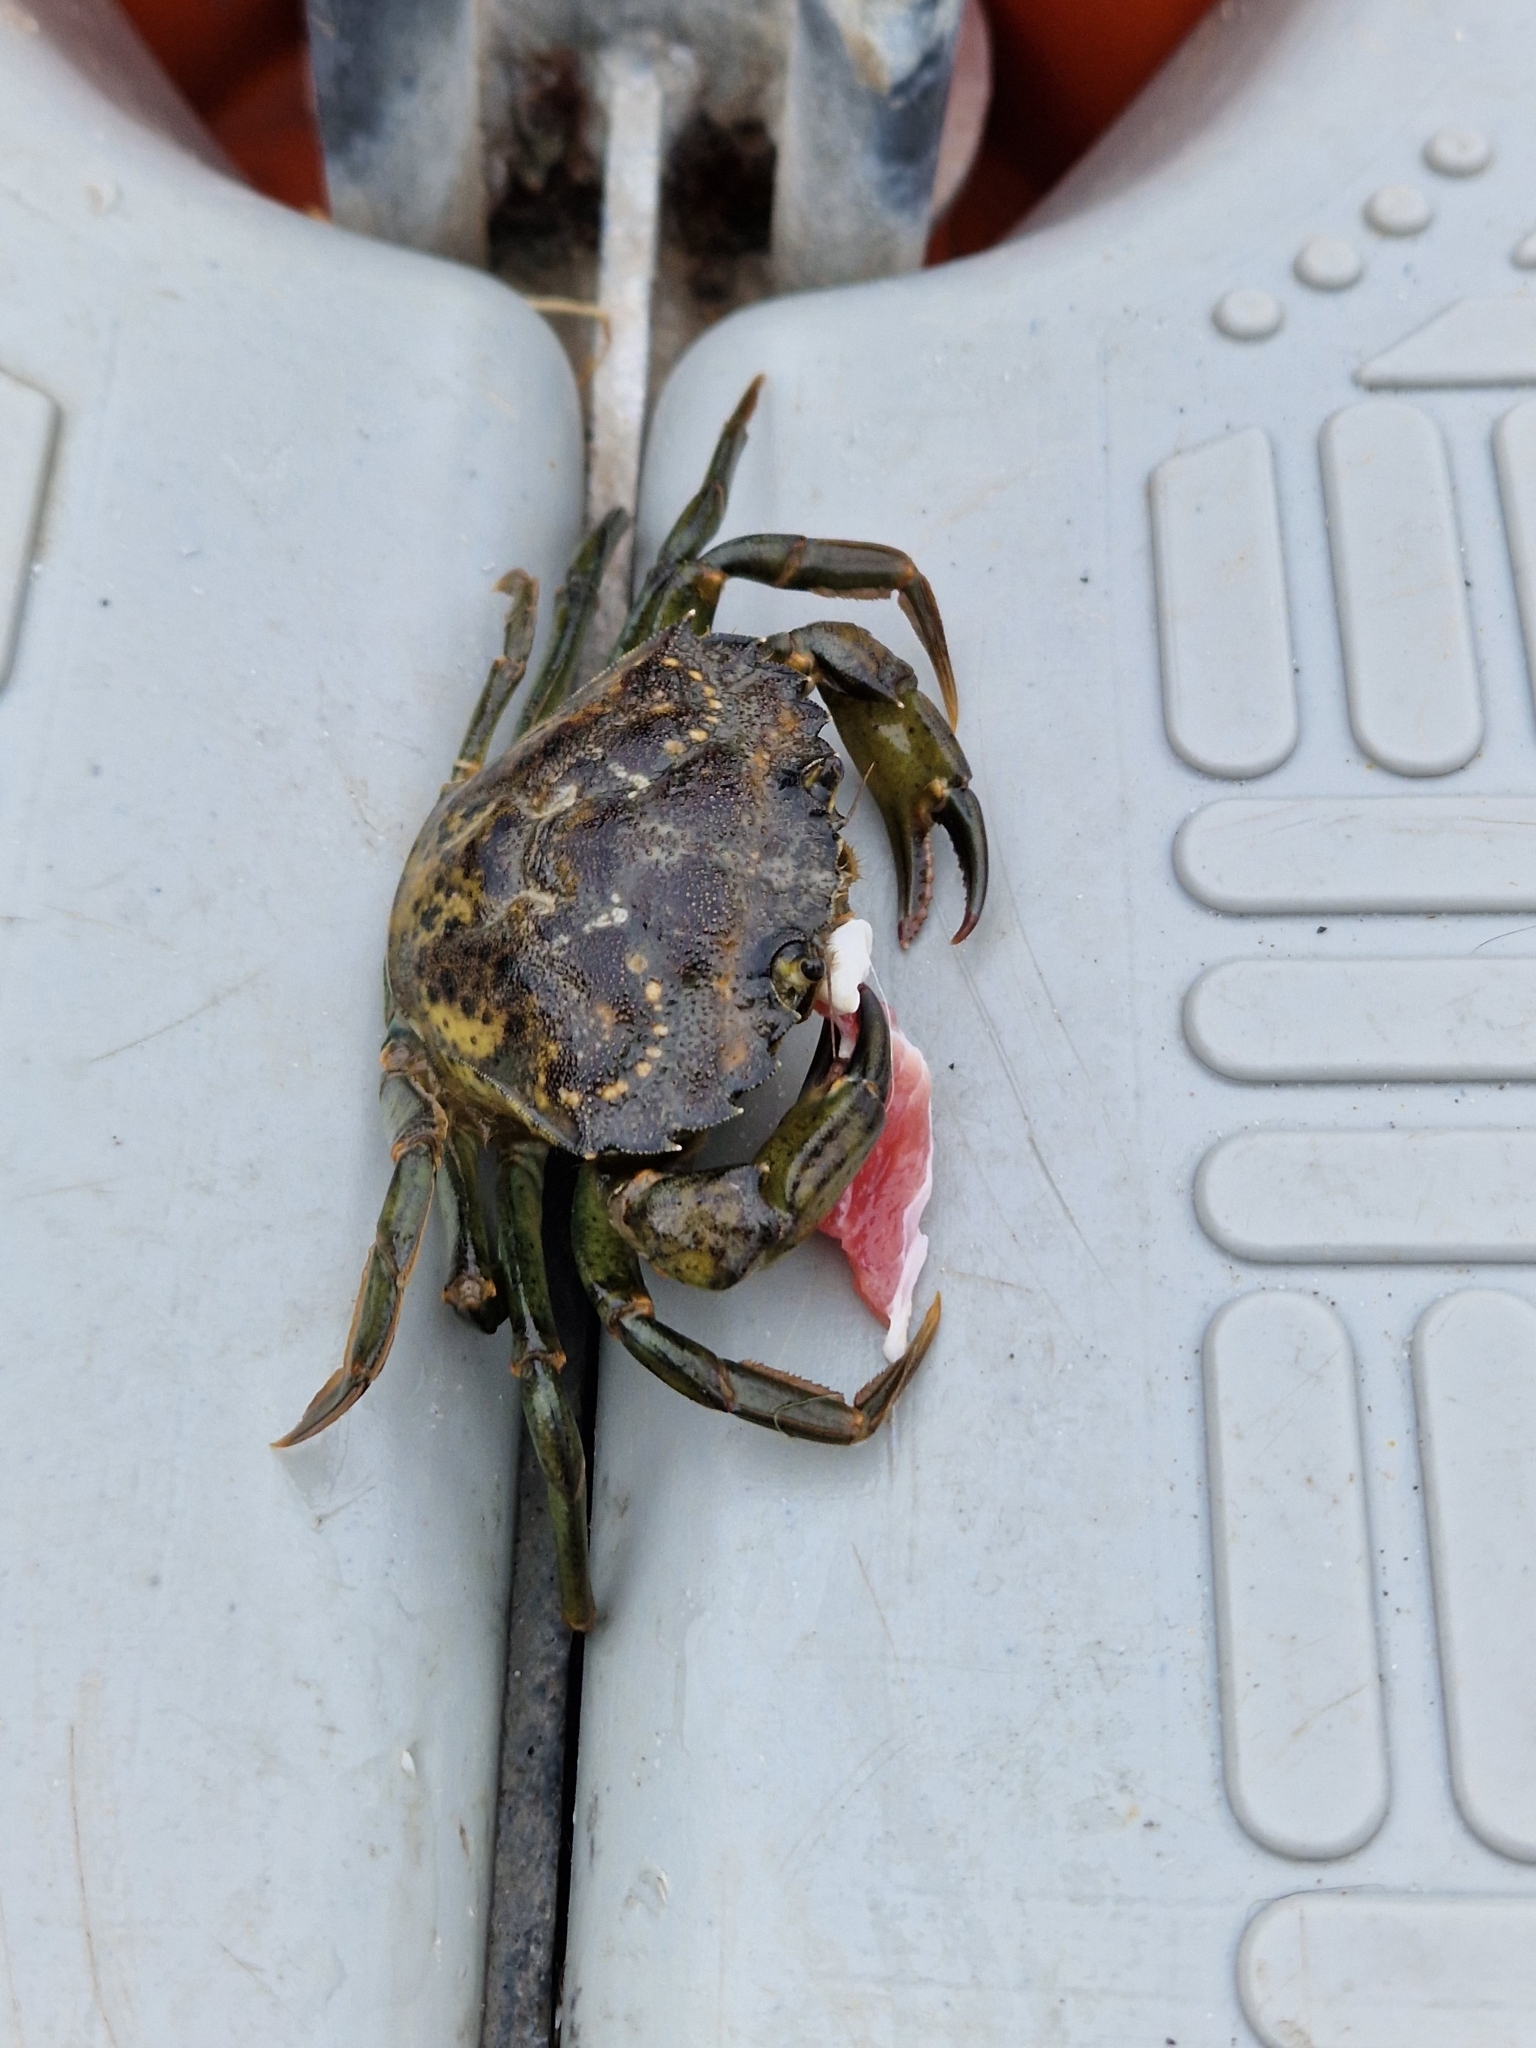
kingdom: Animalia
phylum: Arthropoda
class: Malacostraca
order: Decapoda
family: Carcinidae
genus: Carcinus
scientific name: Carcinus maenas
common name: European green crab
